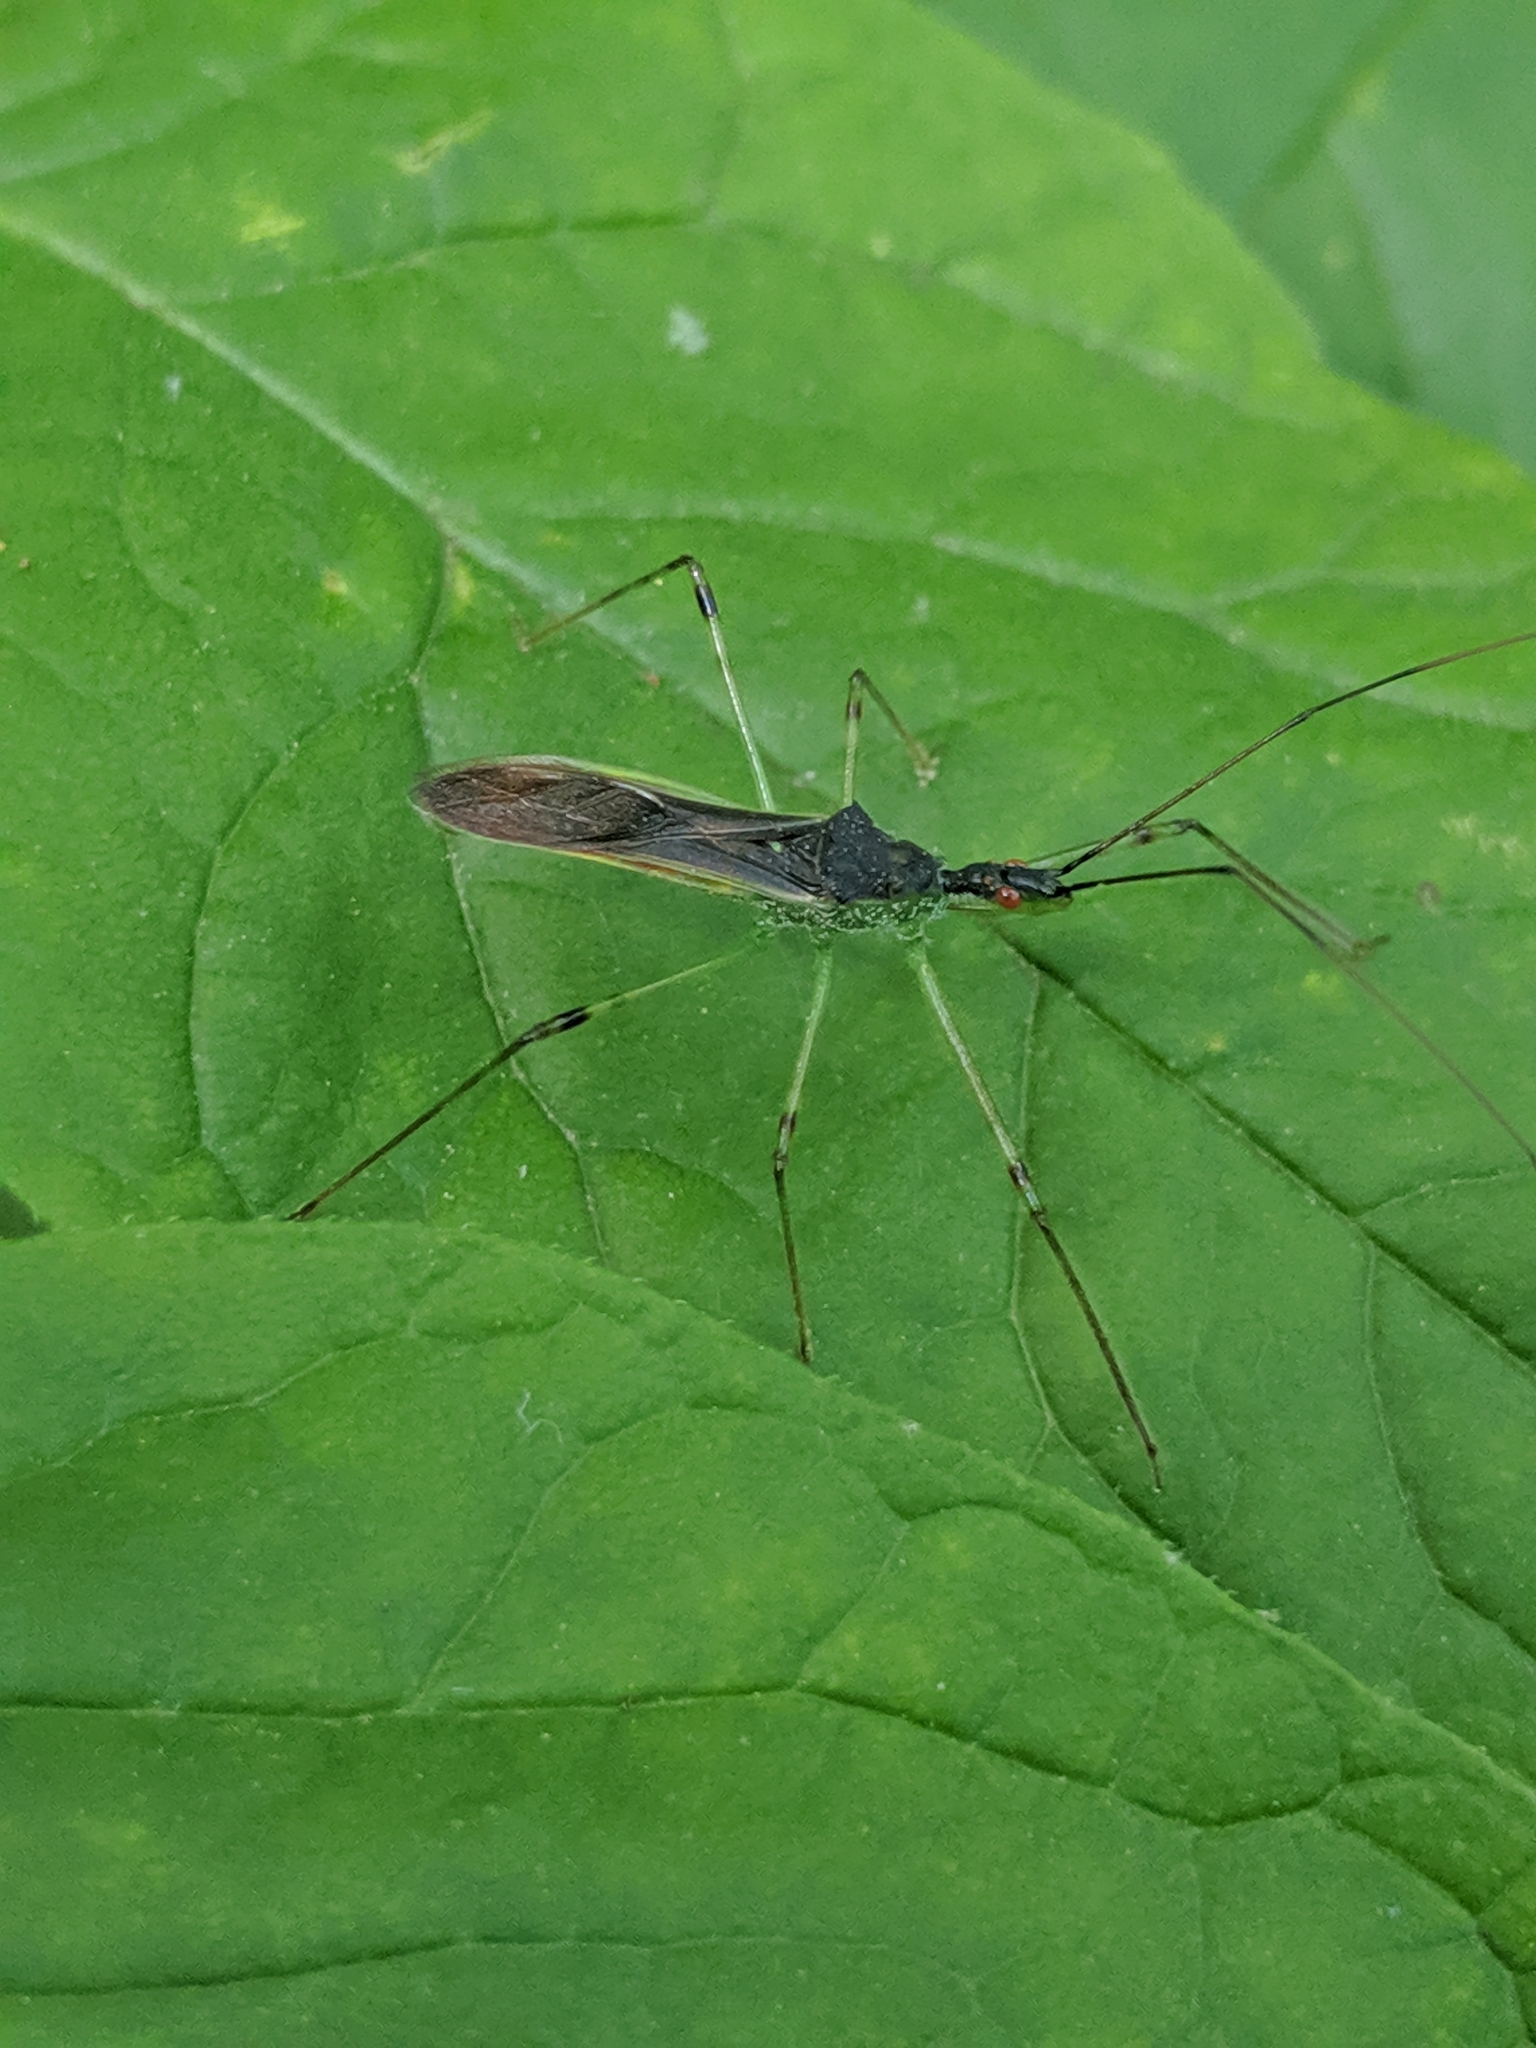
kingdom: Animalia
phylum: Arthropoda
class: Insecta
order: Hemiptera
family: Reduviidae
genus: Zelus
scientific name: Zelus luridus
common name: Pale green assassin bug
